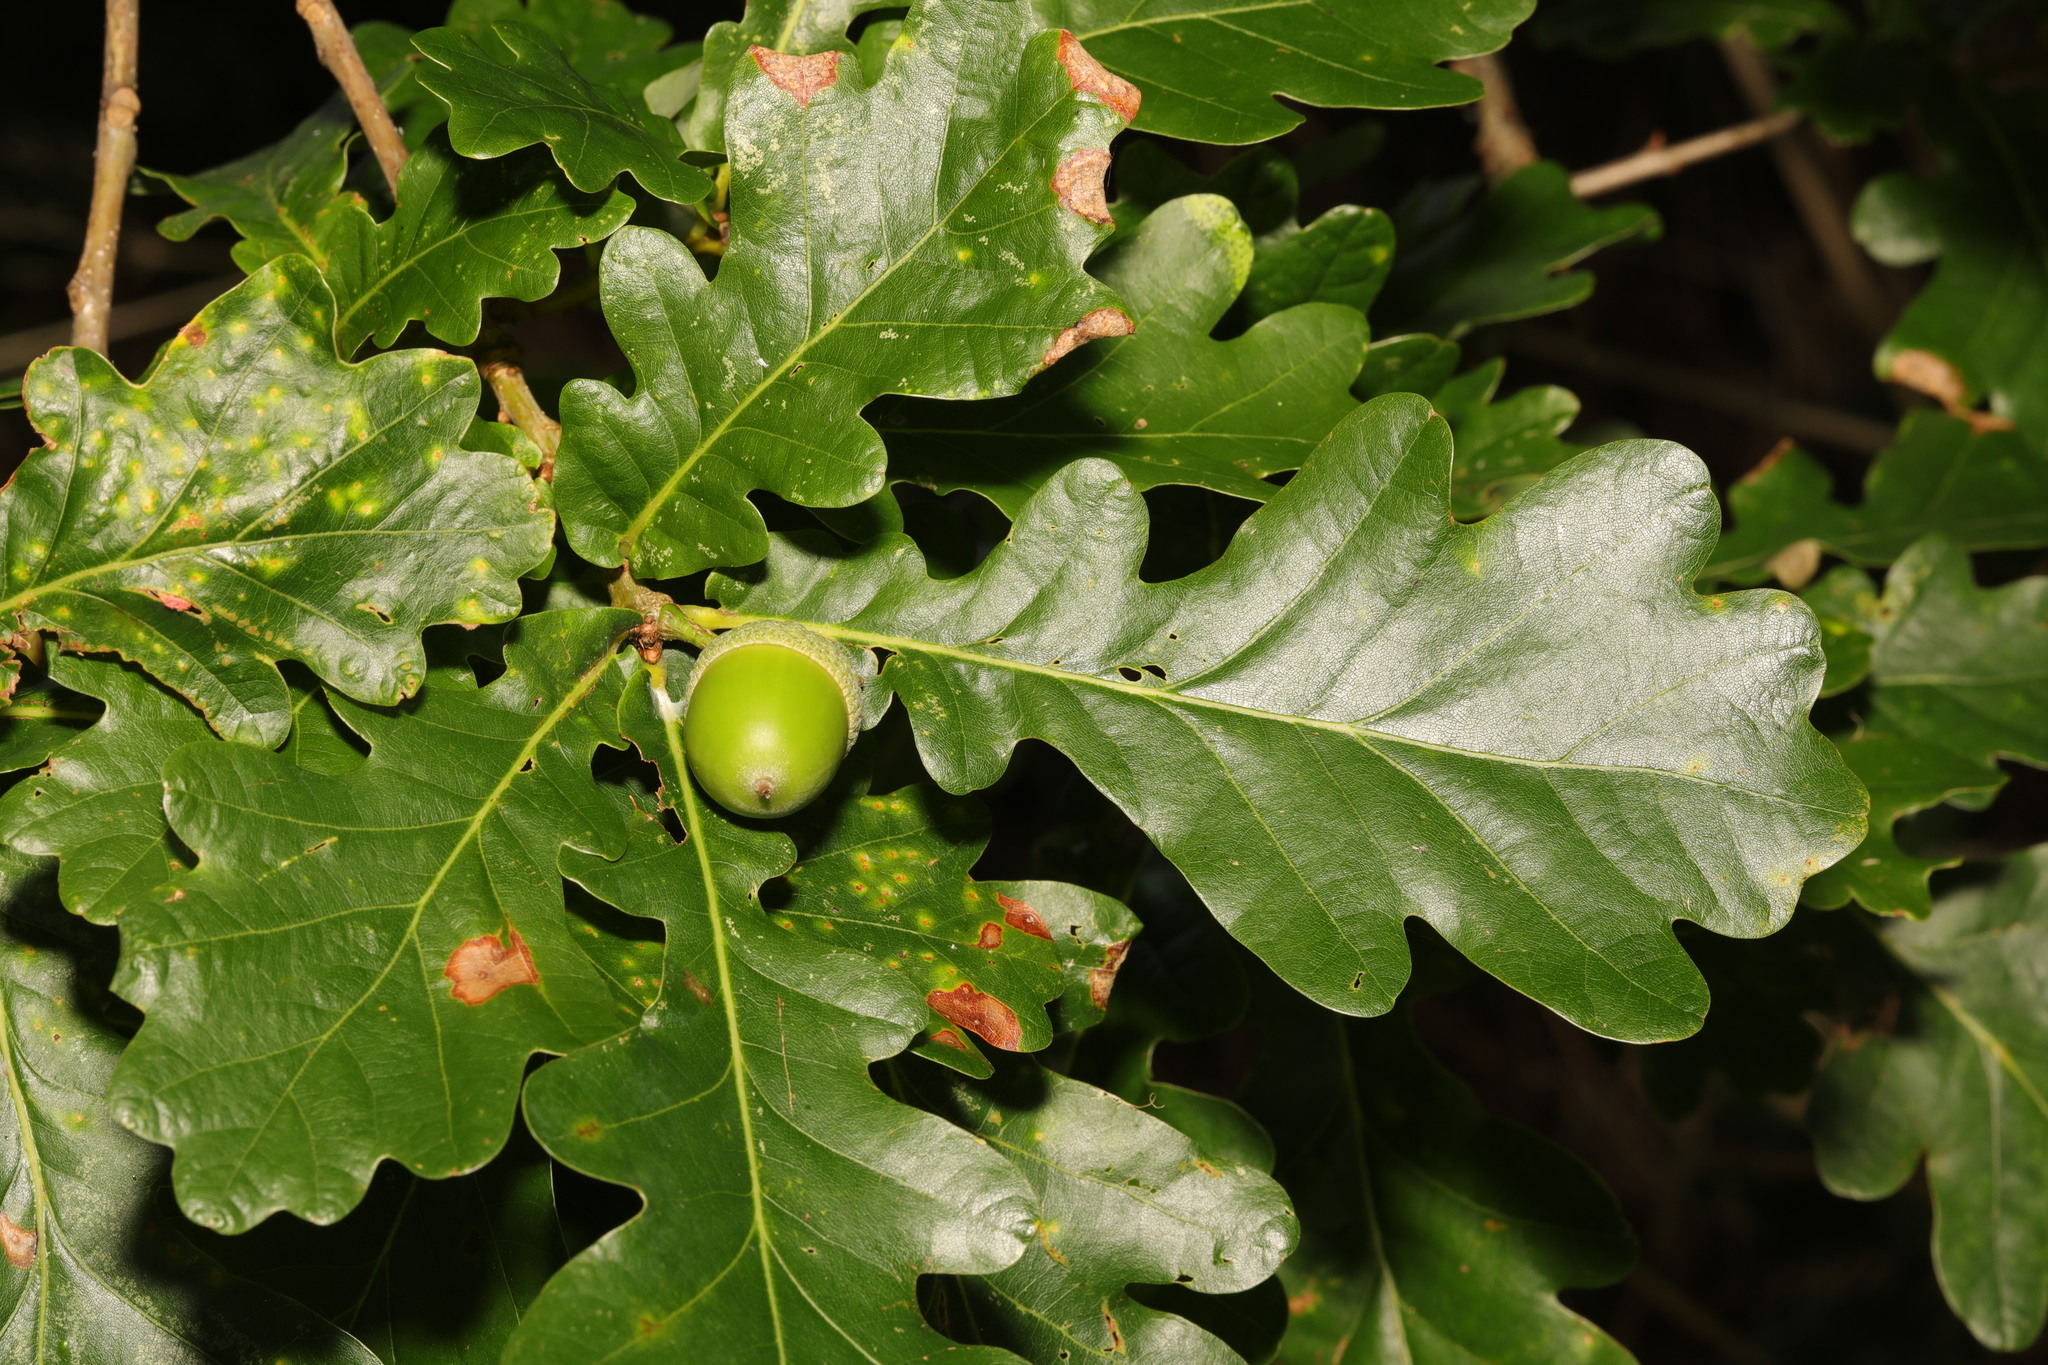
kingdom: Plantae
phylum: Tracheophyta
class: Magnoliopsida
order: Fagales
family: Fagaceae
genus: Quercus
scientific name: Quercus robur
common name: Pedunculate oak
